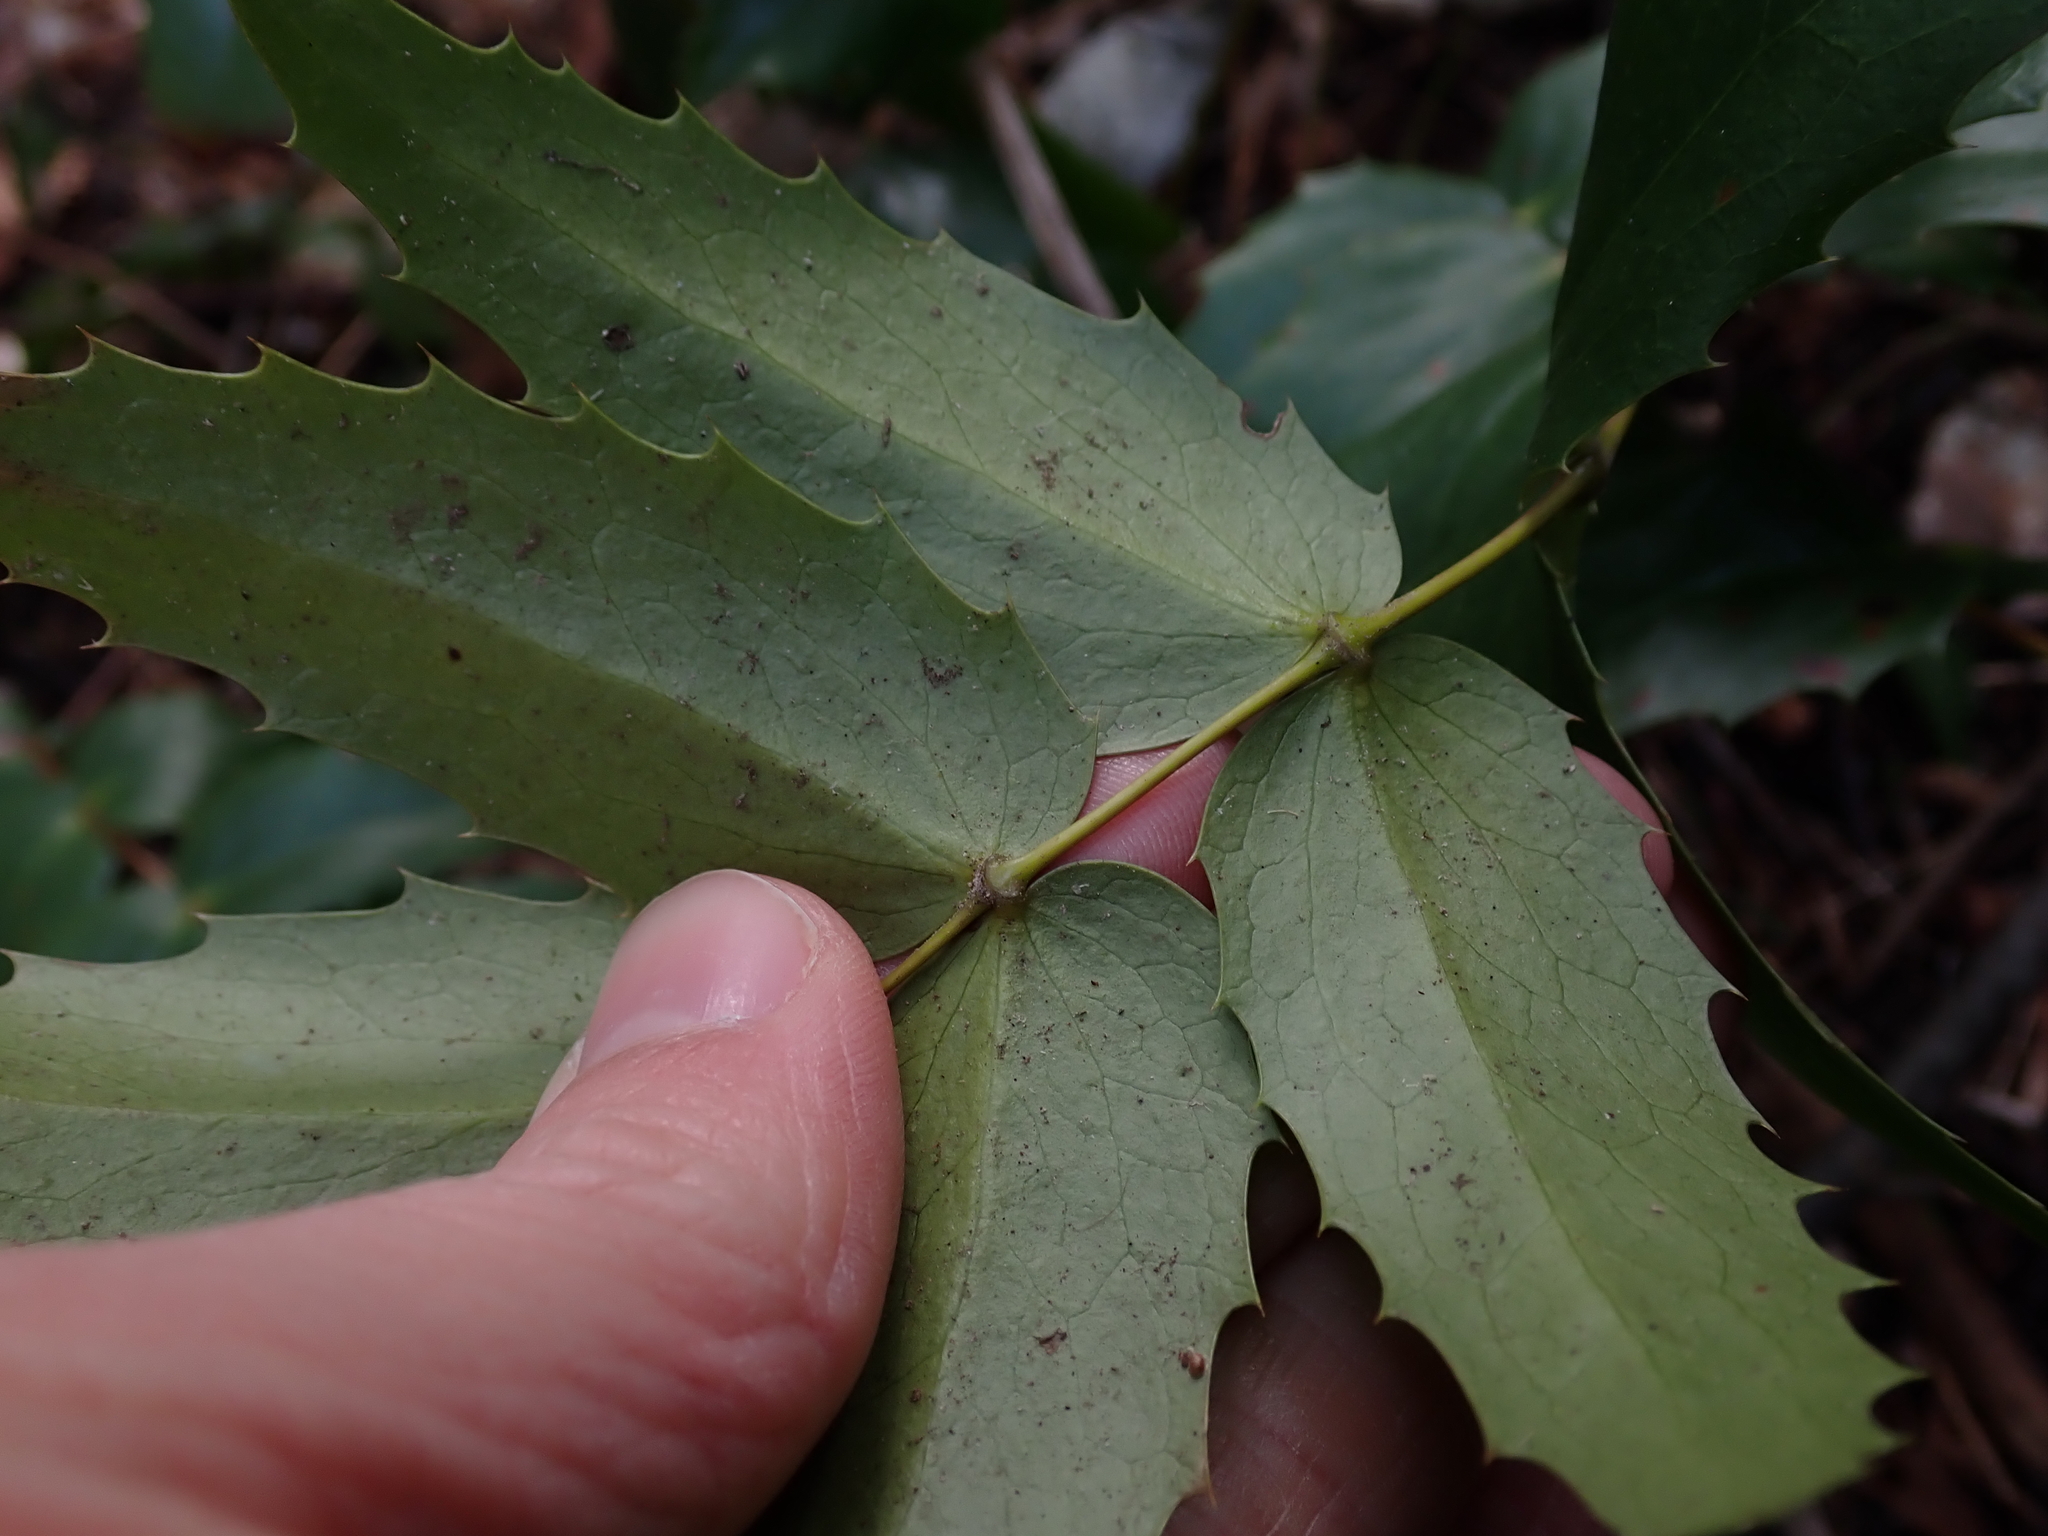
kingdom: Plantae
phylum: Tracheophyta
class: Magnoliopsida
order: Ranunculales
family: Berberidaceae
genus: Mahonia
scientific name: Mahonia nervosa
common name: Cascade oregon-grape
